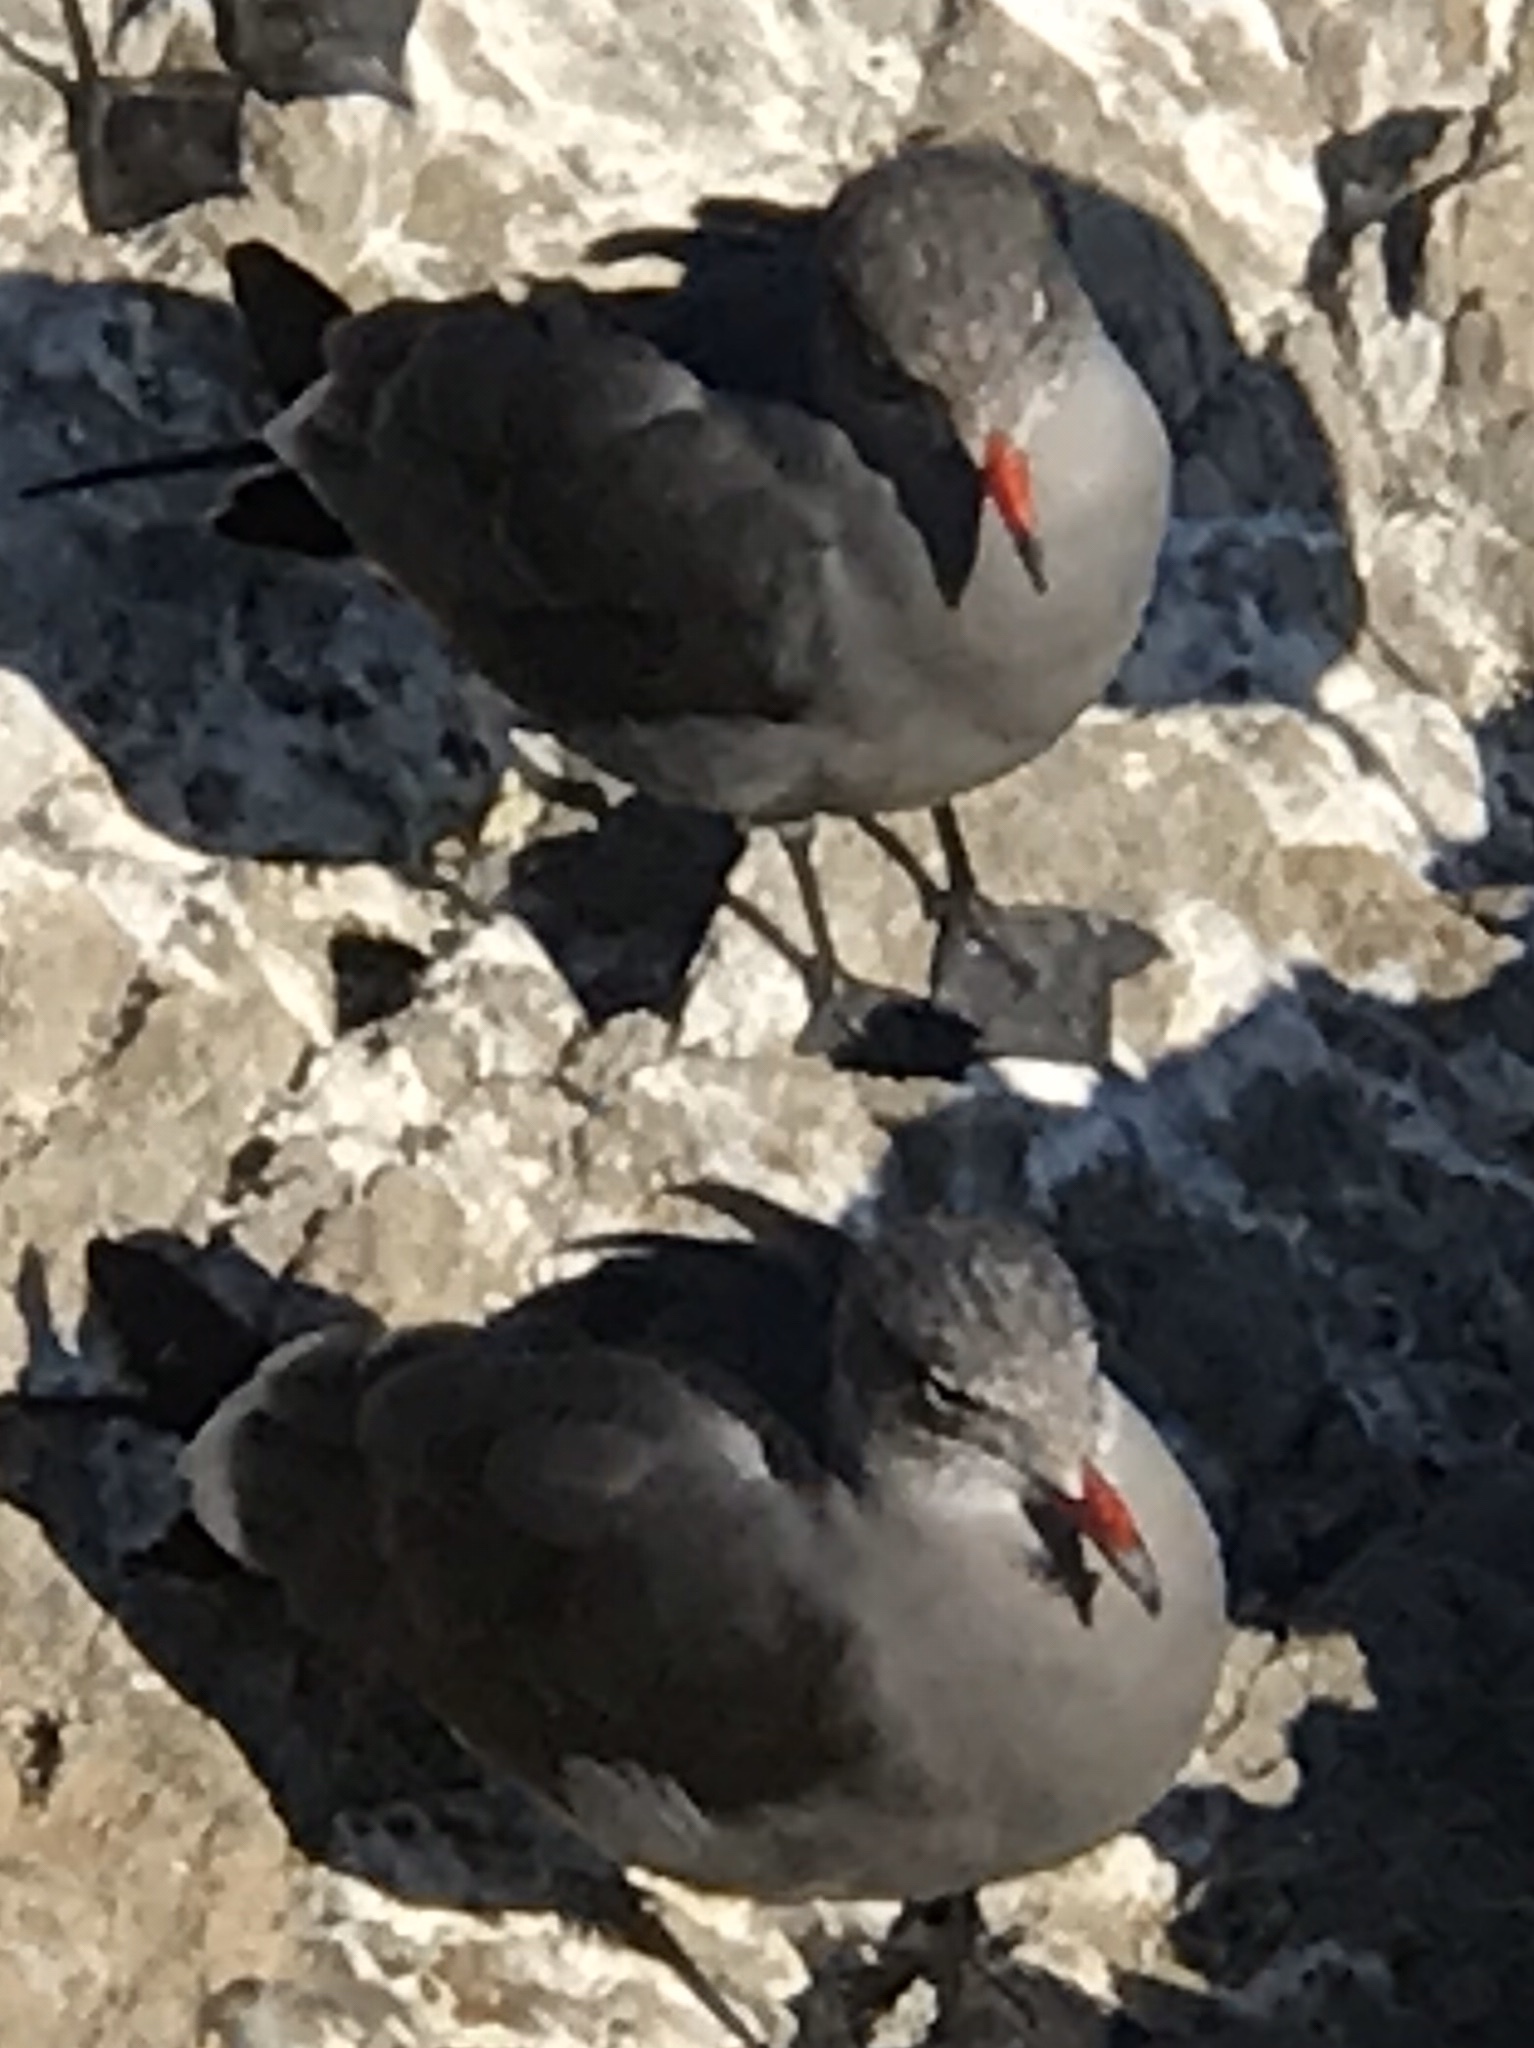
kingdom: Animalia
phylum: Chordata
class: Aves
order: Charadriiformes
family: Laridae
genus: Larus
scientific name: Larus heermanni
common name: Heermann's gull
